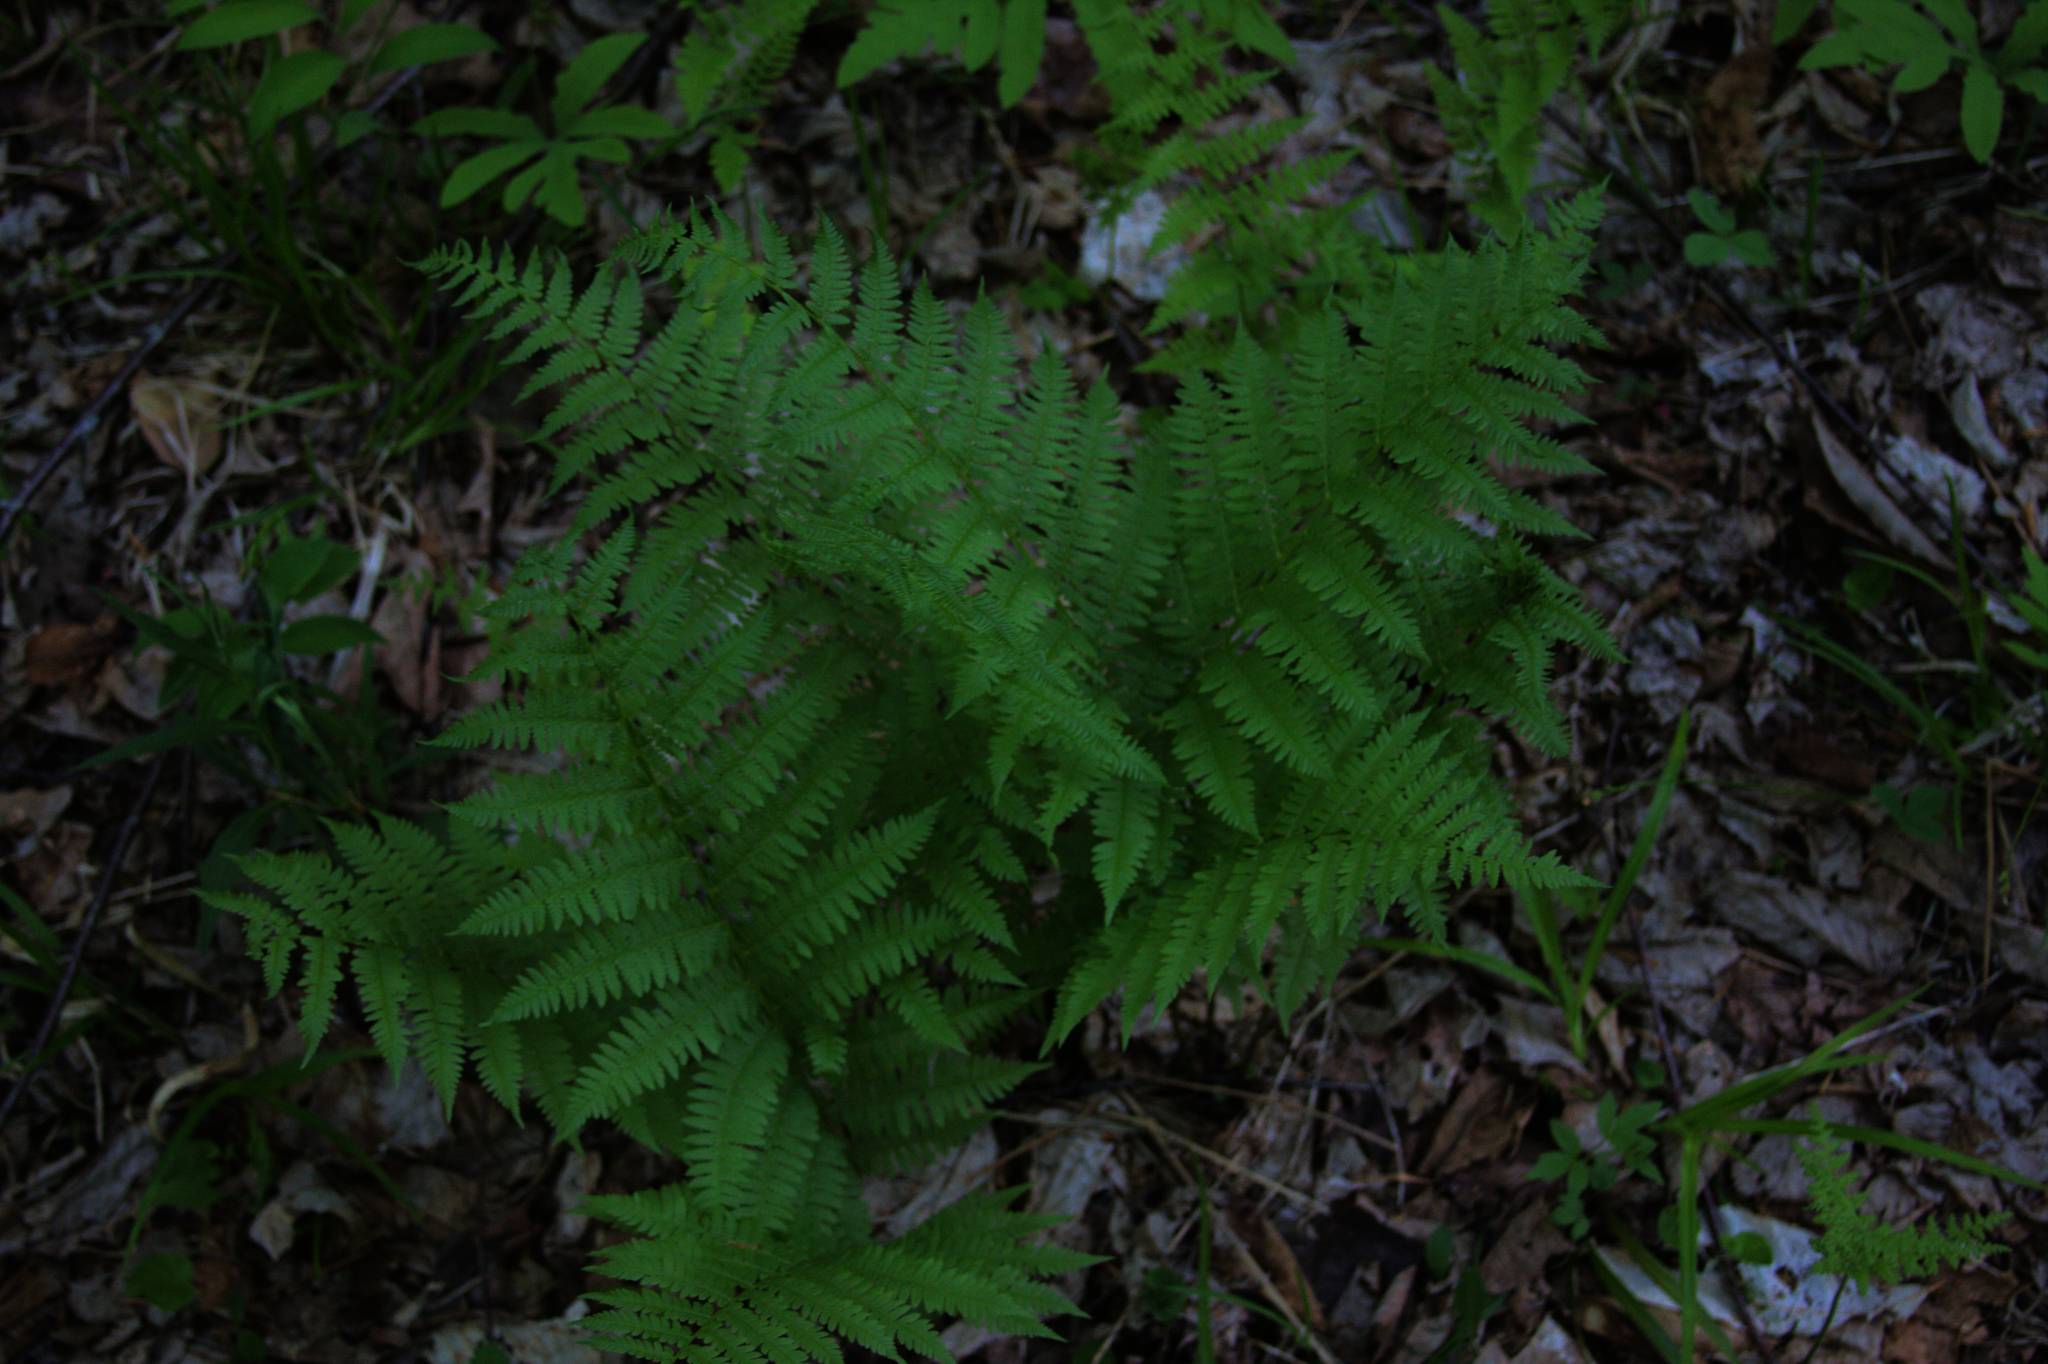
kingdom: Plantae
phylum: Tracheophyta
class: Polypodiopsida
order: Polypodiales
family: Athyriaceae
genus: Athyrium
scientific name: Athyrium angustum
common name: Northern lady fern
